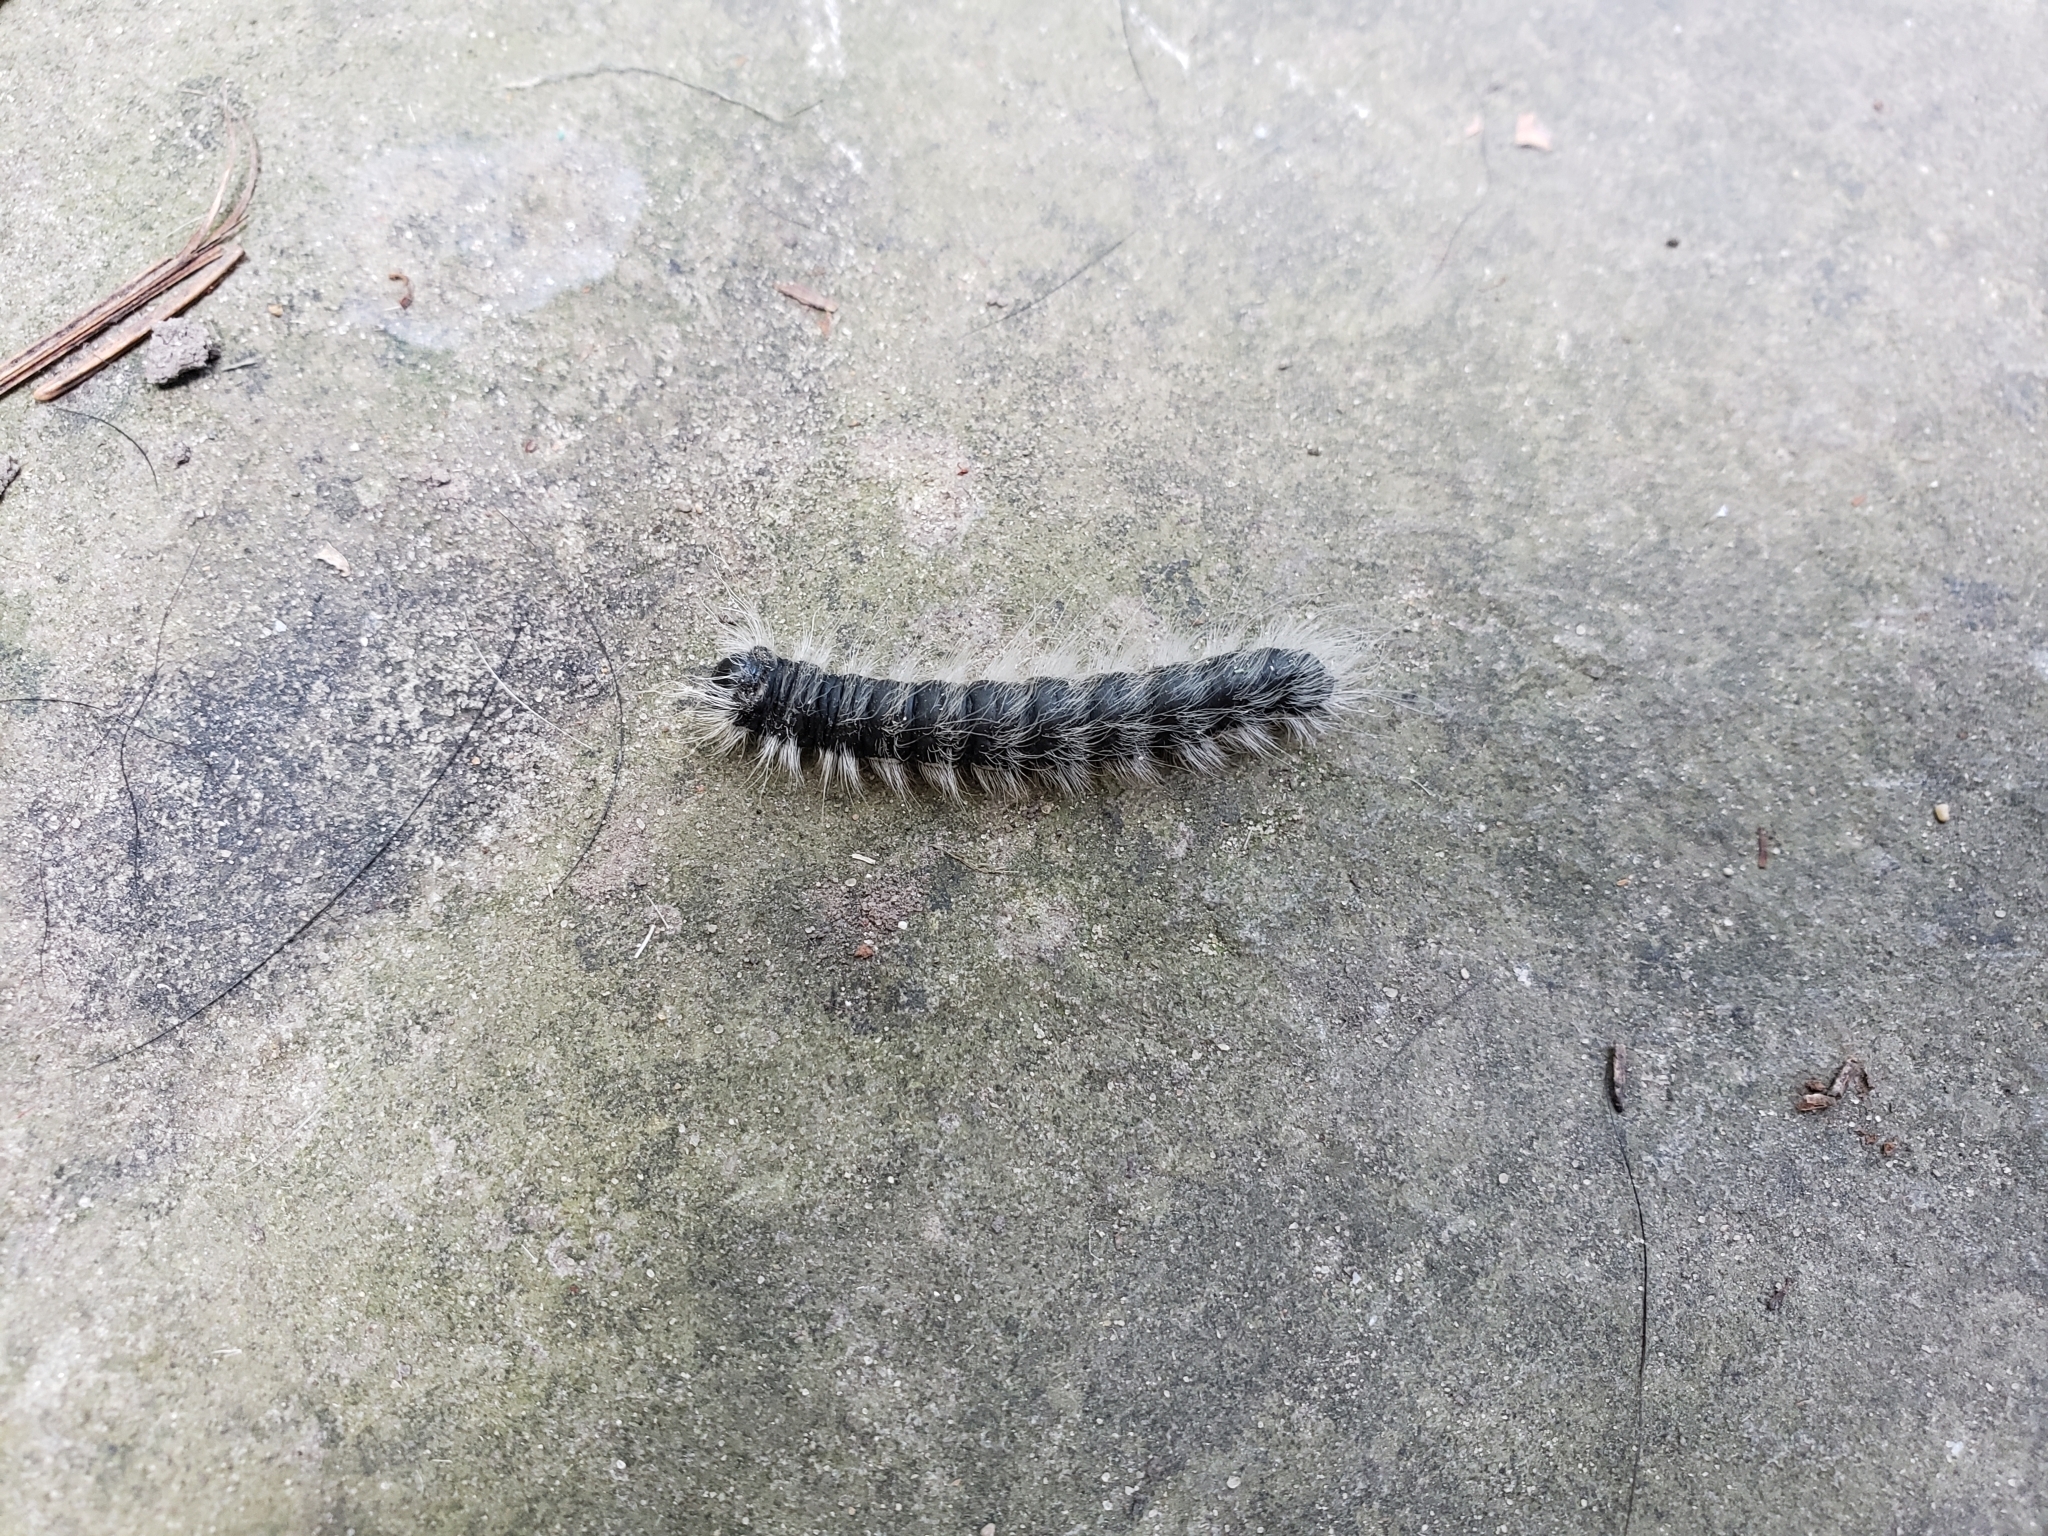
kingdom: Animalia
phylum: Arthropoda
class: Insecta
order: Lepidoptera
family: Notodontidae
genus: Datana
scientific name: Datana integerrima
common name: Walnut caterpillar
